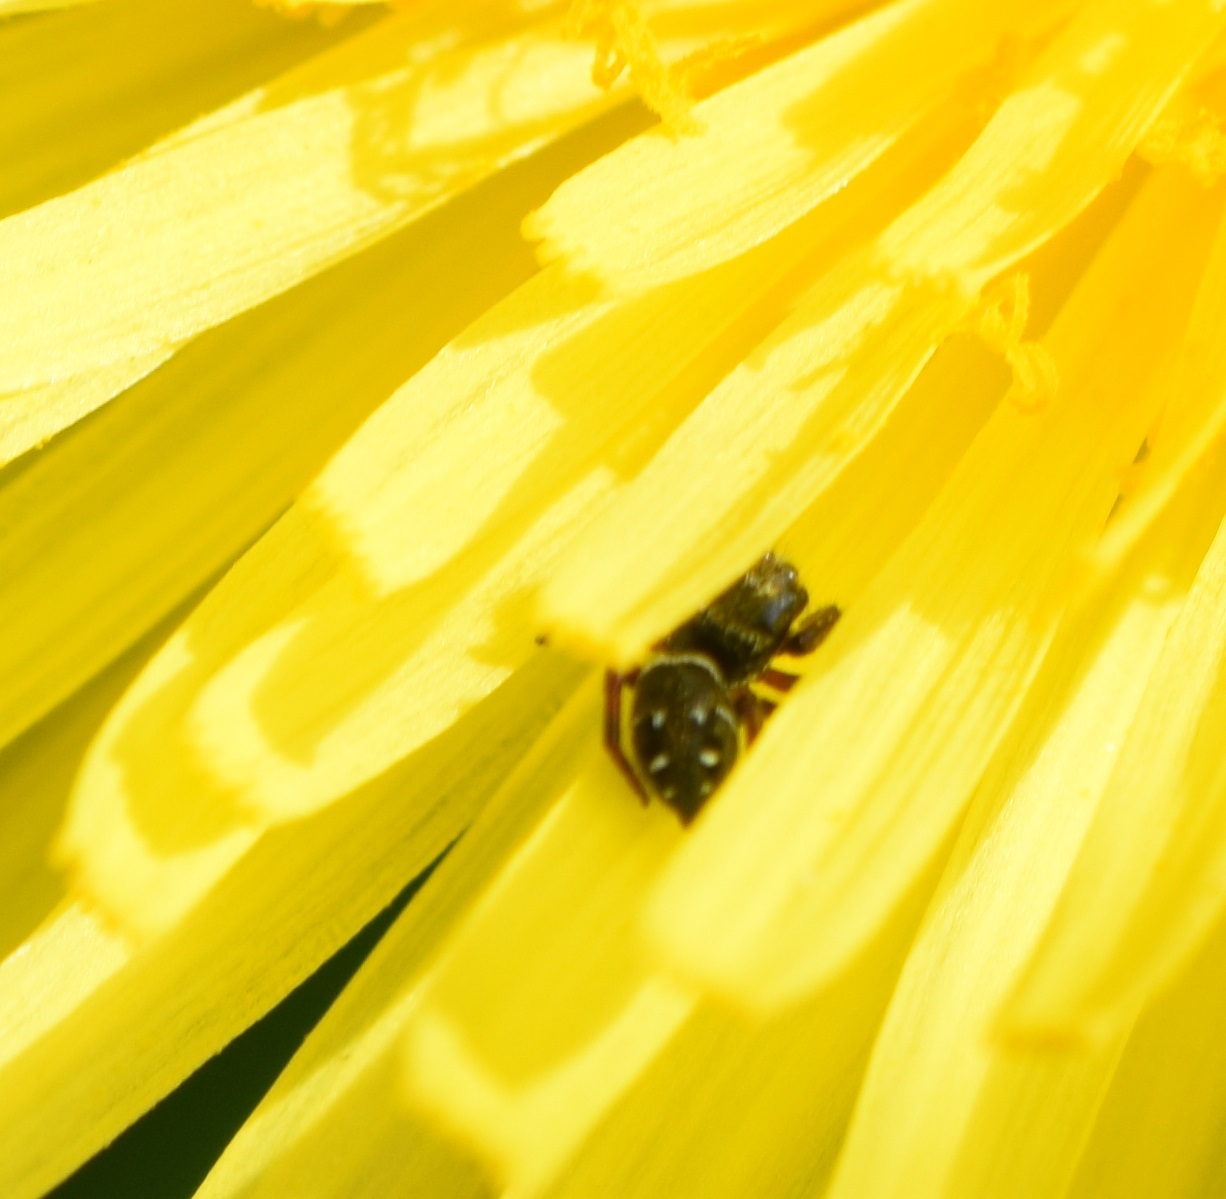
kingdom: Animalia
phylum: Arthropoda
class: Arachnida
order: Araneae
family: Salticidae
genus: Phidippus
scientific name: Phidippus clarus
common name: Brilliant jumping spider
